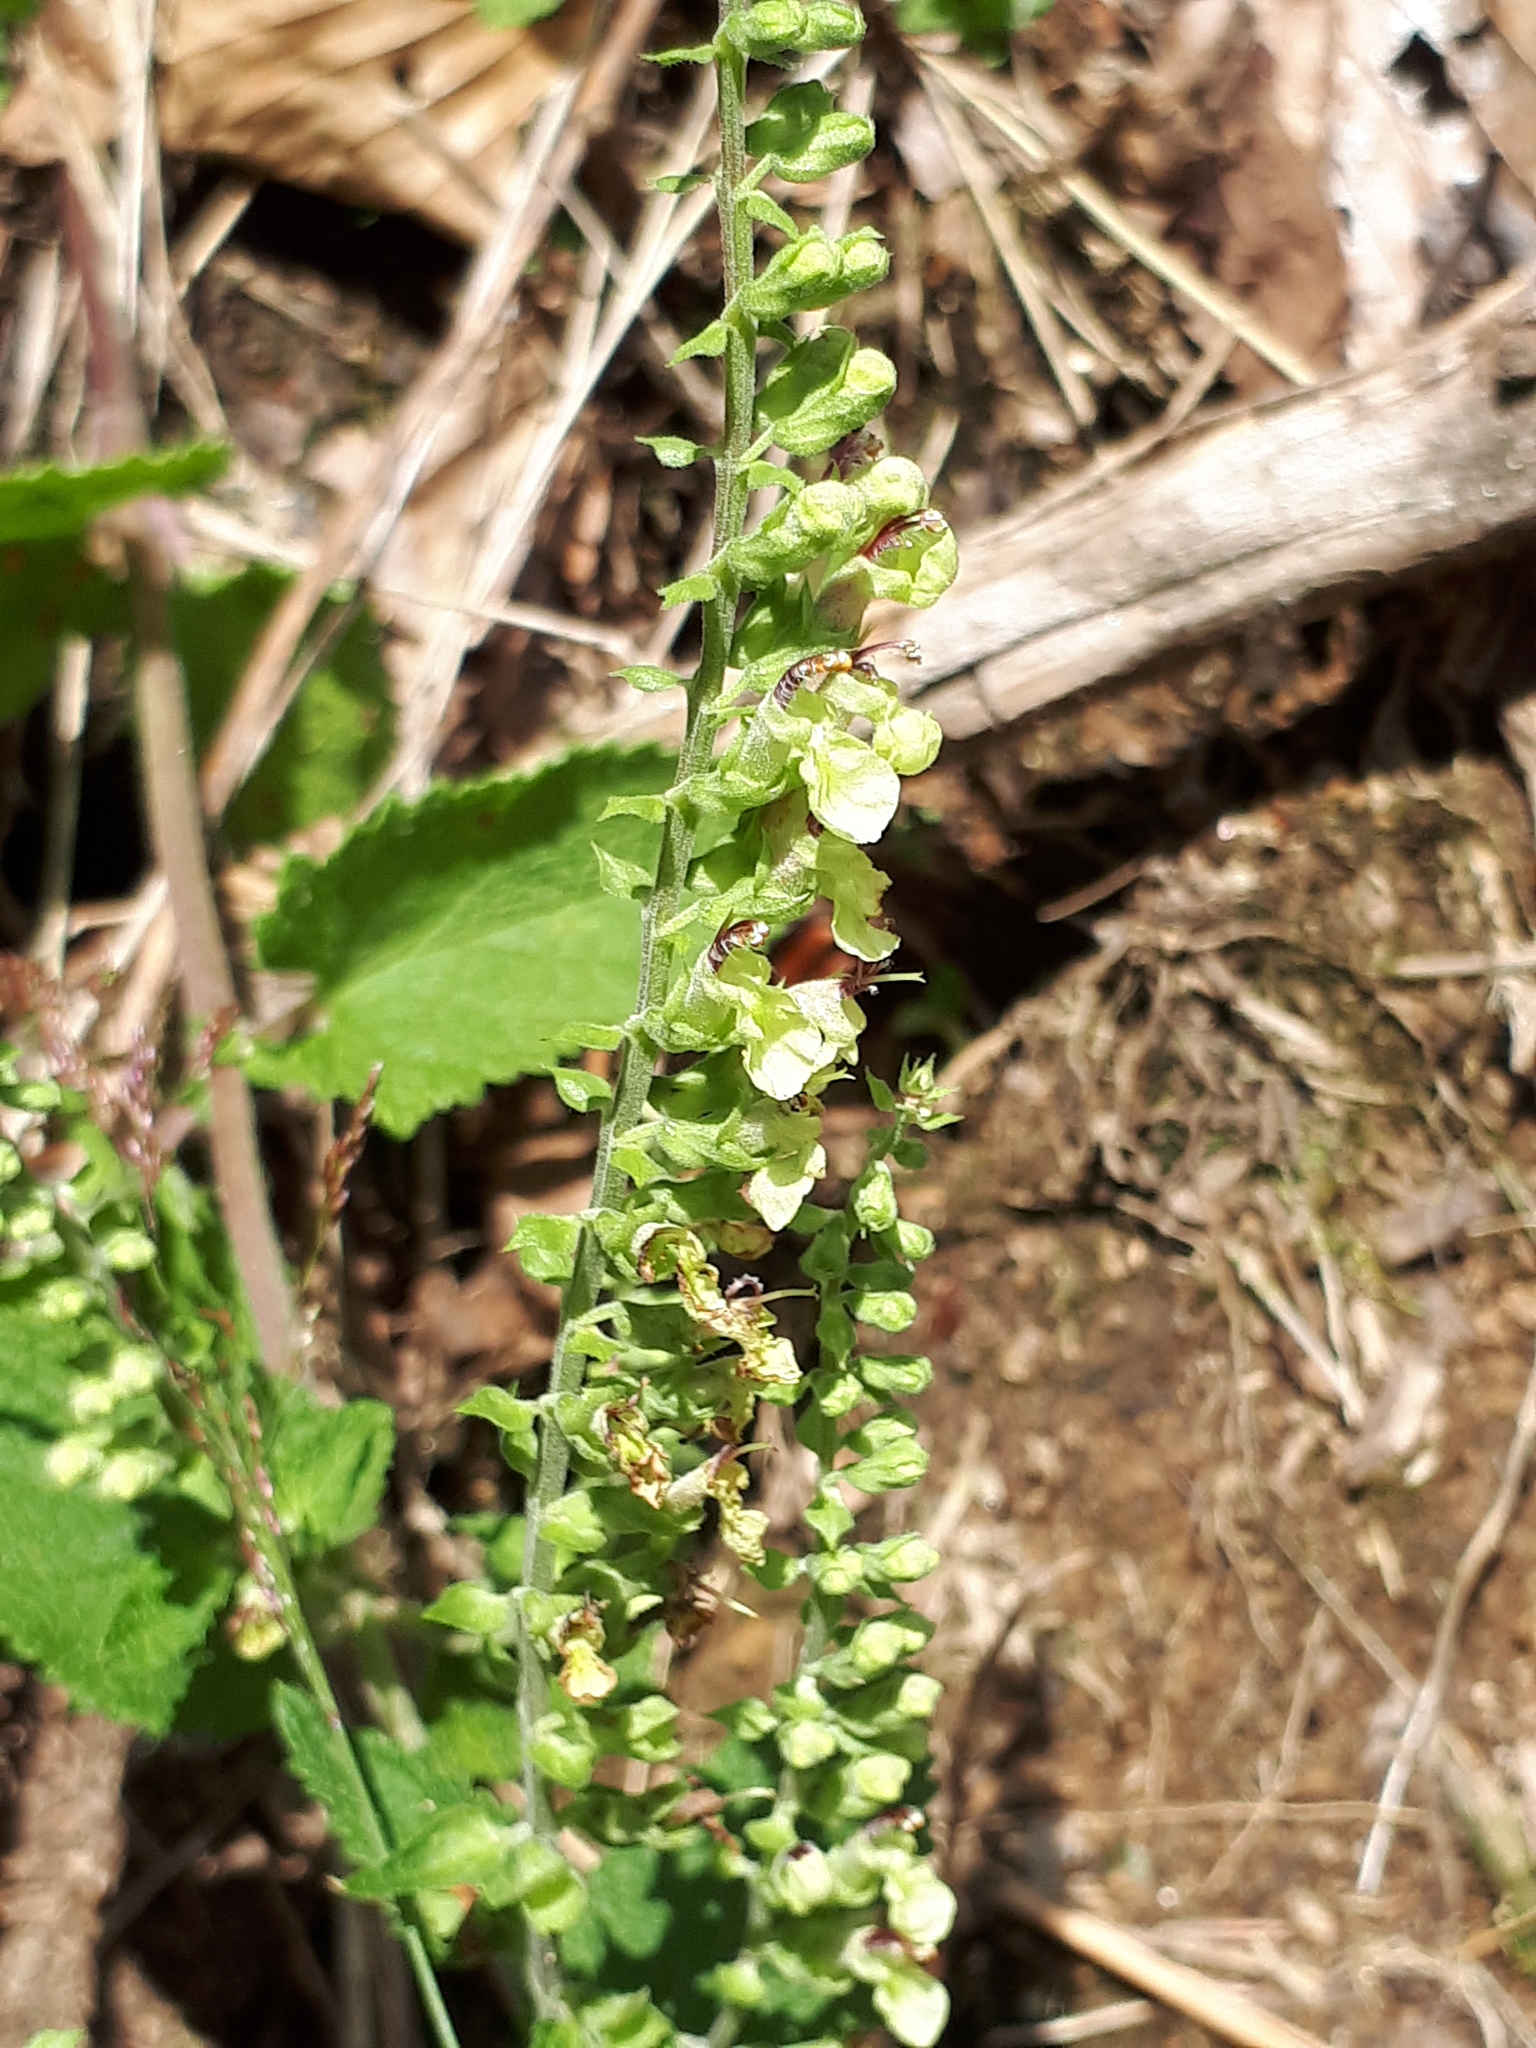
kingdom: Plantae
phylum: Tracheophyta
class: Magnoliopsida
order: Lamiales
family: Lamiaceae
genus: Teucrium
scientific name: Teucrium scorodonia
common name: Woodland germander
